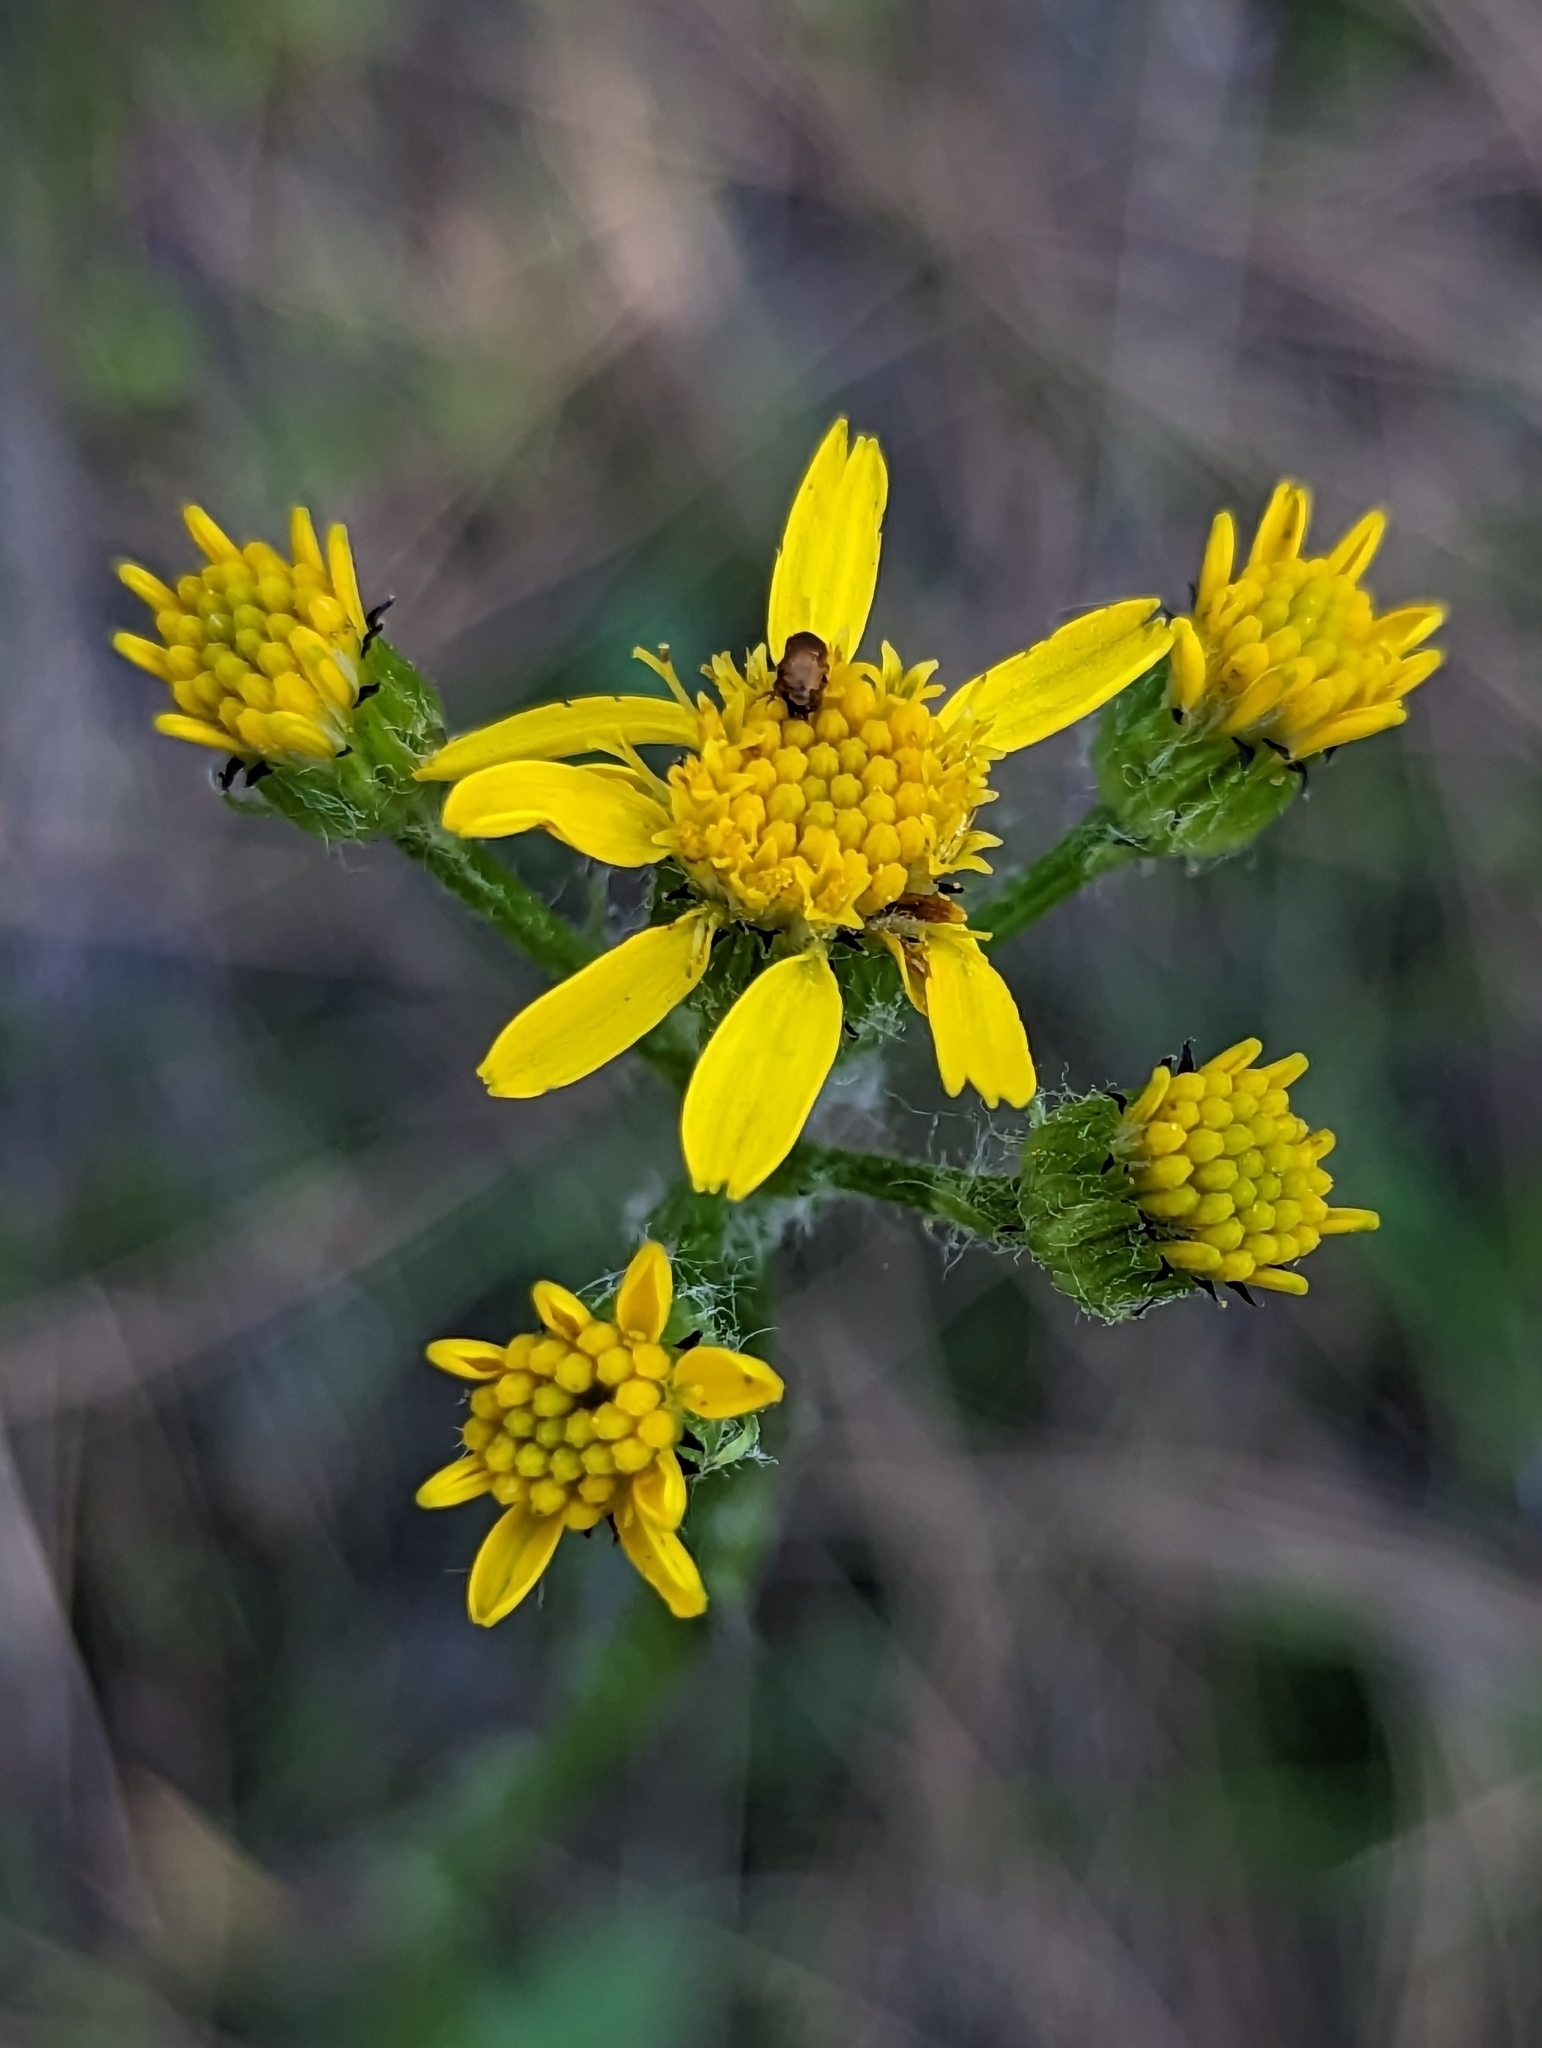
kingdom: Plantae
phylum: Tracheophyta
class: Magnoliopsida
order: Asterales
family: Asteraceae
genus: Senecio
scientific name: Senecio integerrimus
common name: Gaugeplant
